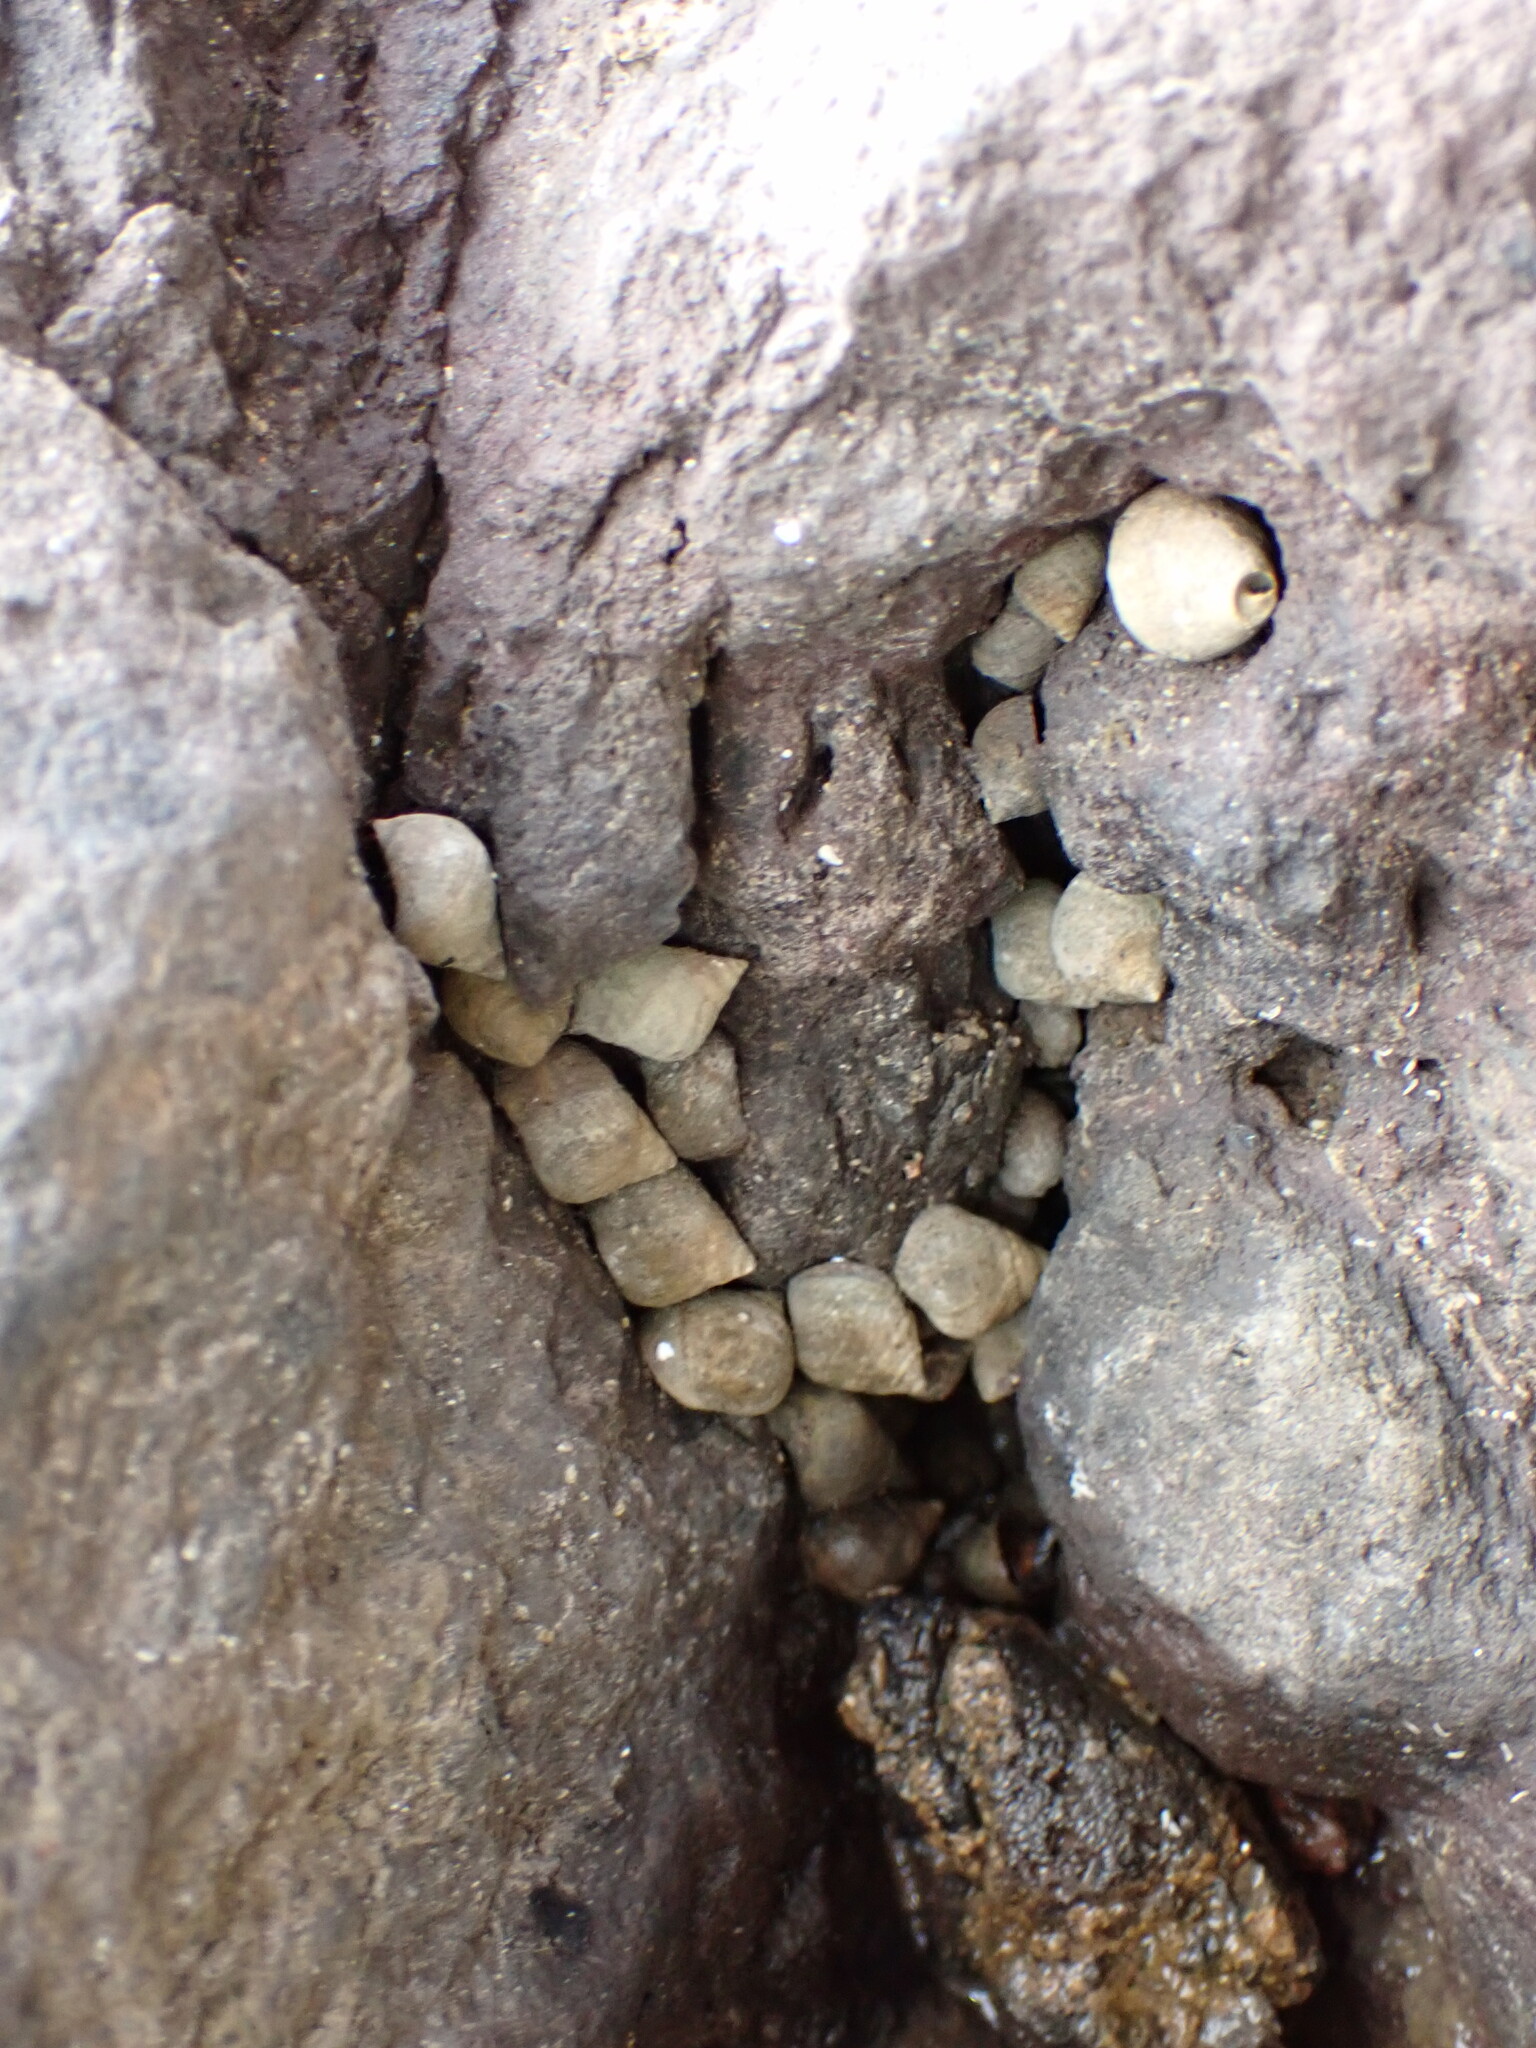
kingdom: Animalia
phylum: Mollusca
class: Gastropoda
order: Littorinimorpha
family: Littorinidae
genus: Tectarius
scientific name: Tectarius striatus
